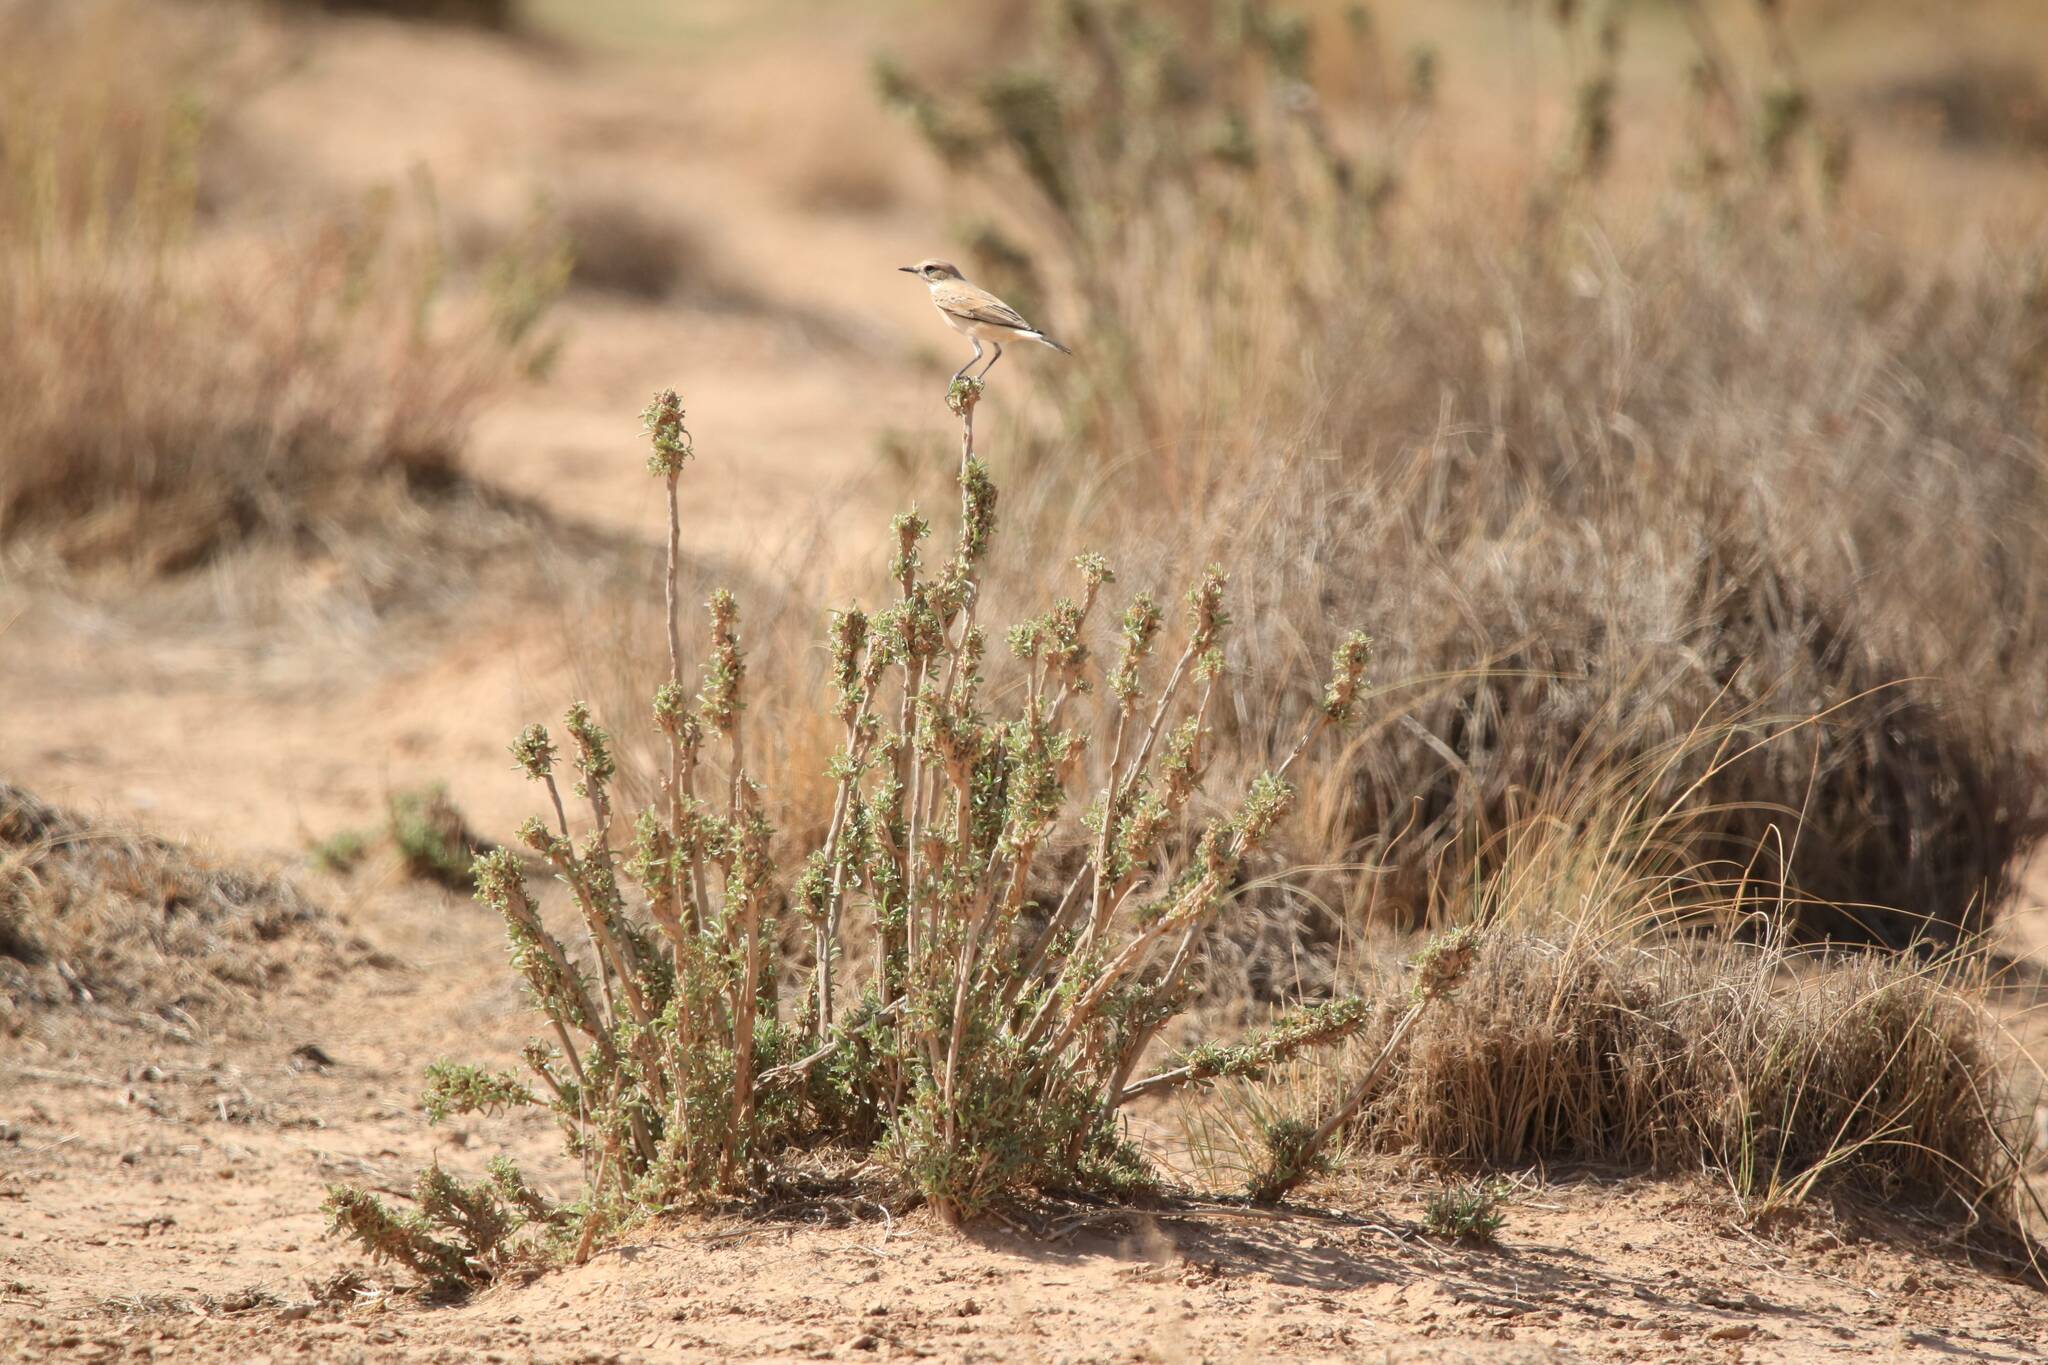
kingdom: Animalia
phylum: Chordata
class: Aves
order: Passeriformes
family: Muscicapidae
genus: Oenanthe
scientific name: Oenanthe deserti
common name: Desert wheatear
